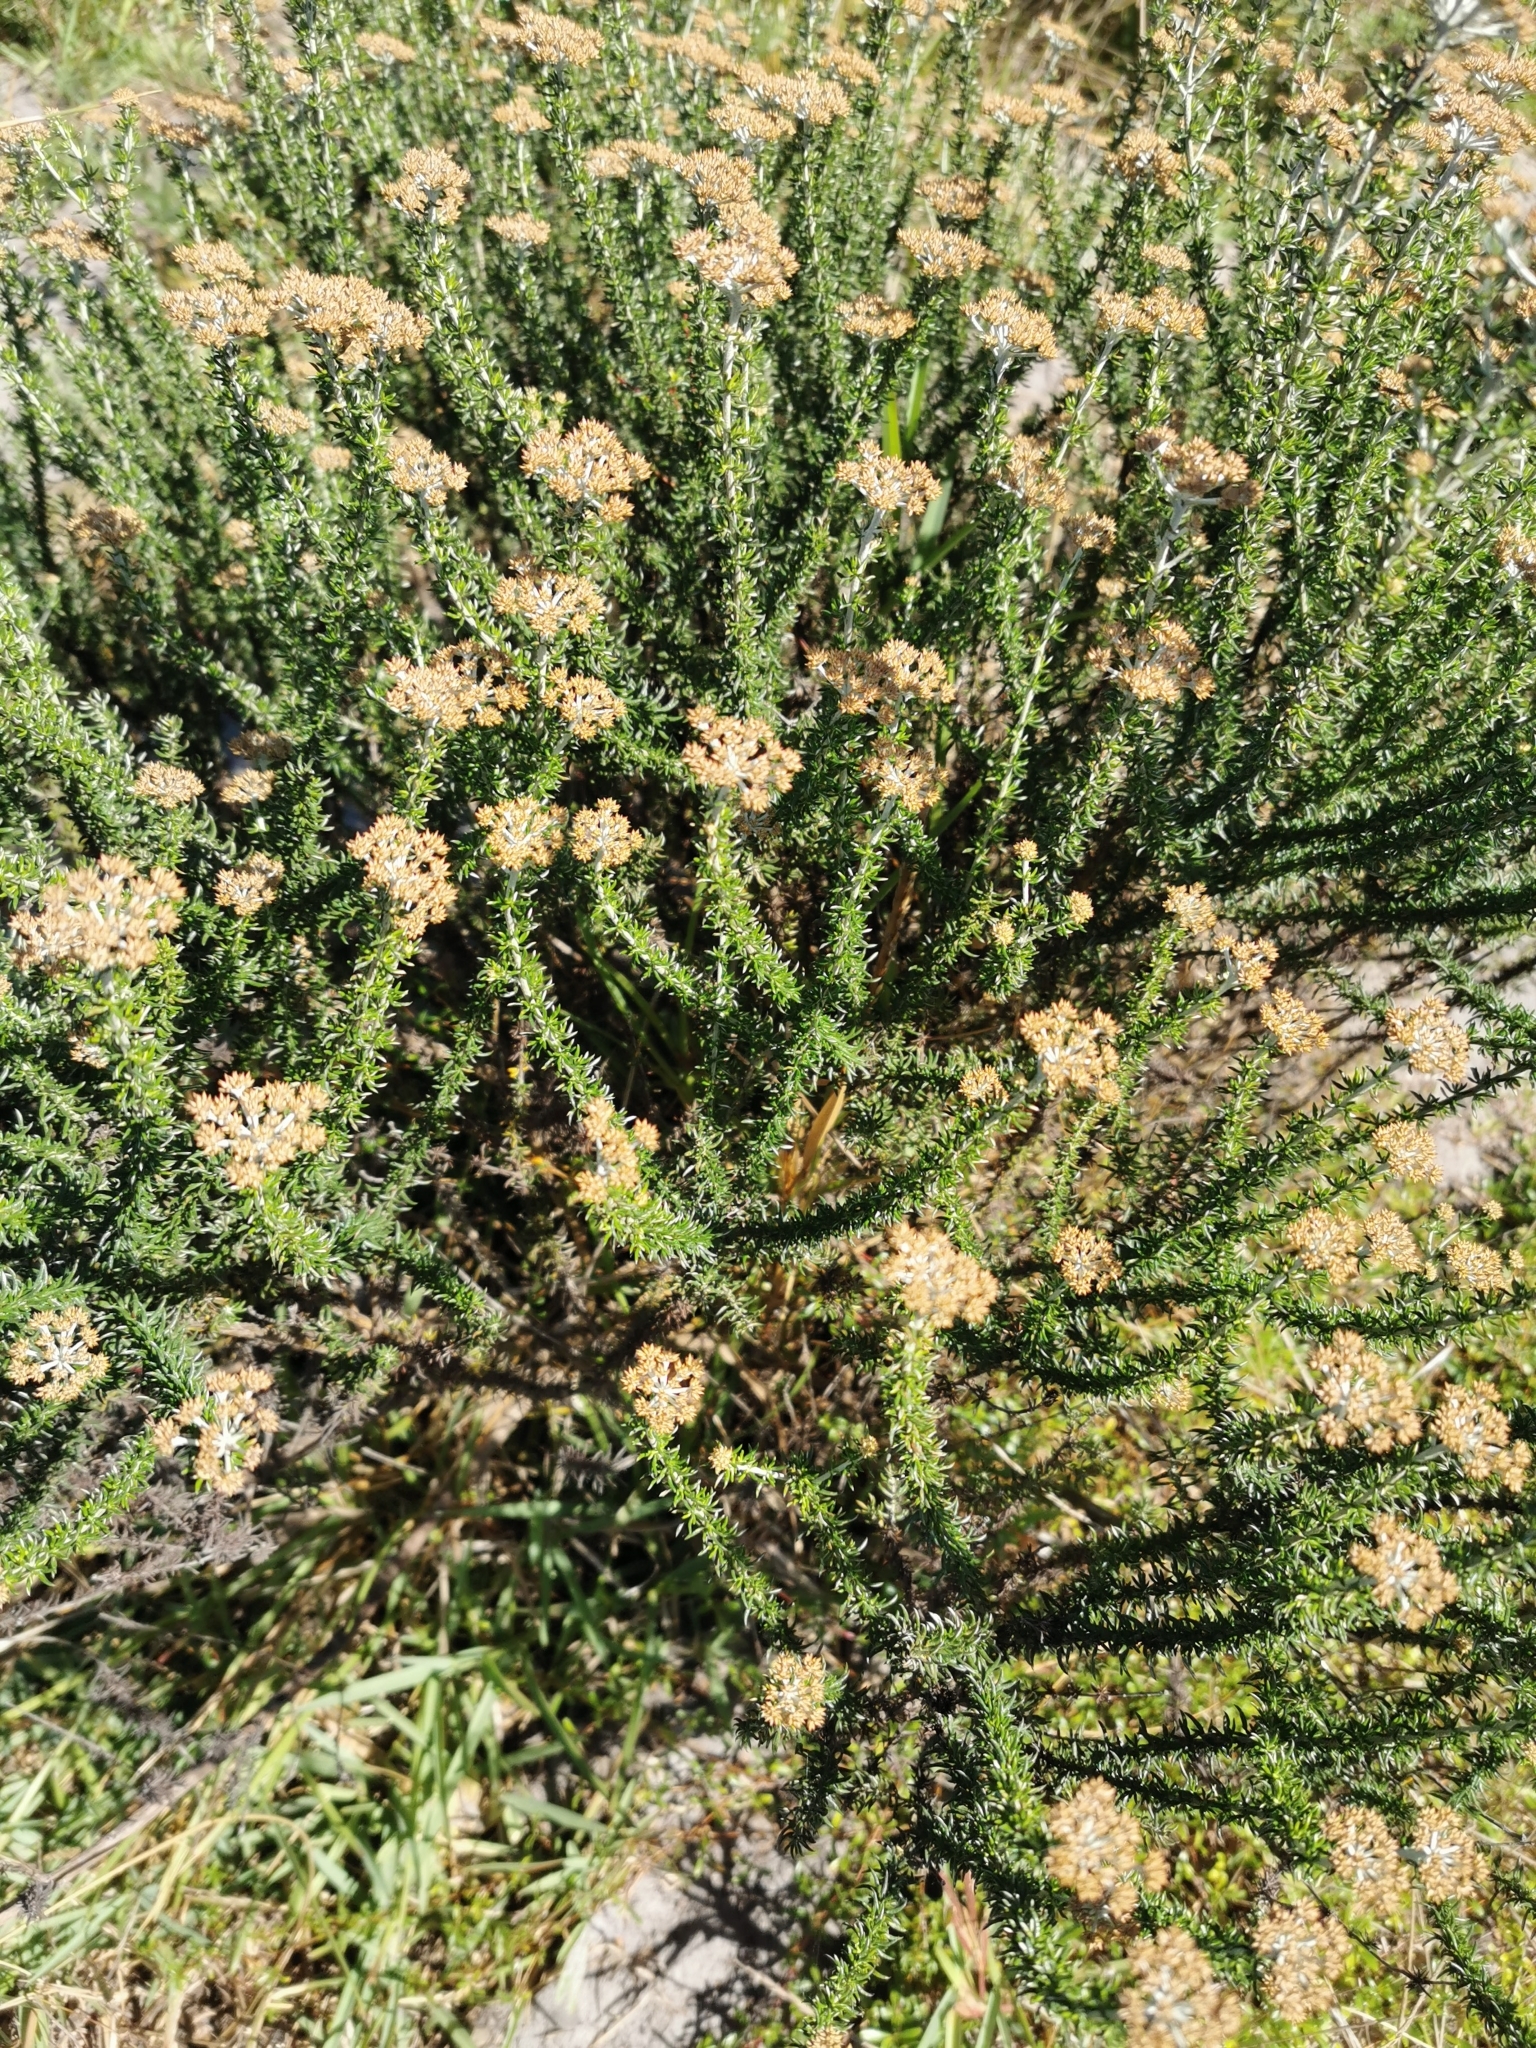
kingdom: Plantae
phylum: Tracheophyta
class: Magnoliopsida
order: Asterales
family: Asteraceae
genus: Metalasia
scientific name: Metalasia densa
